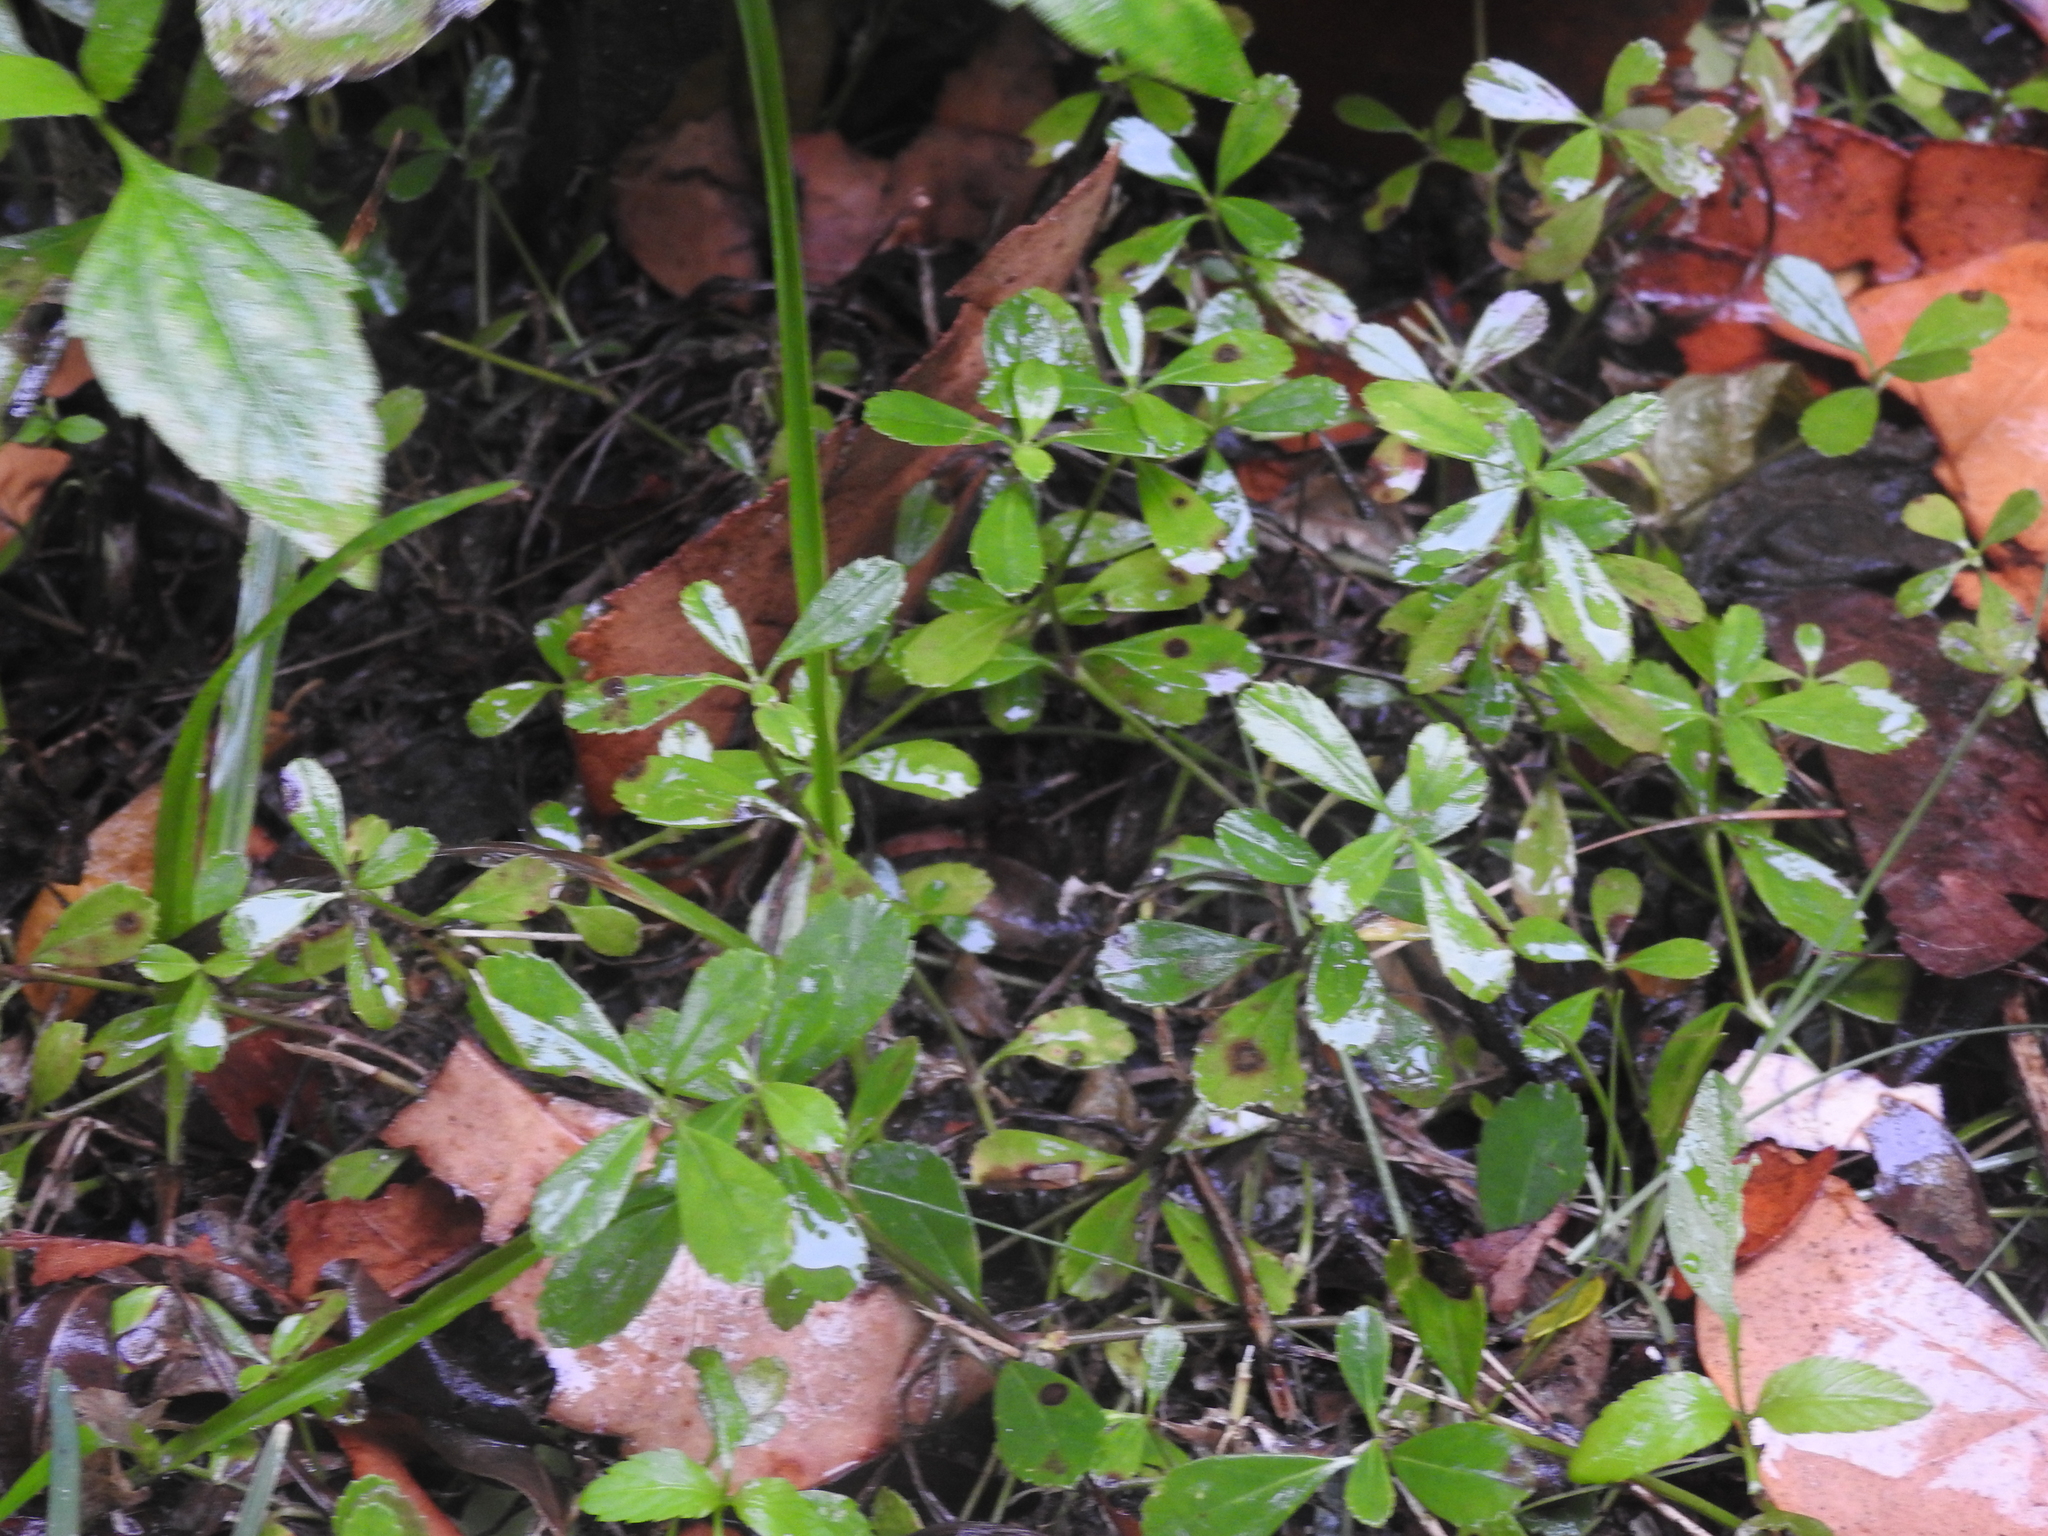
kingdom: Plantae
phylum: Tracheophyta
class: Magnoliopsida
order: Lamiales
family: Verbenaceae
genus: Phyla
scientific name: Phyla nodiflora
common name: Frogfruit
